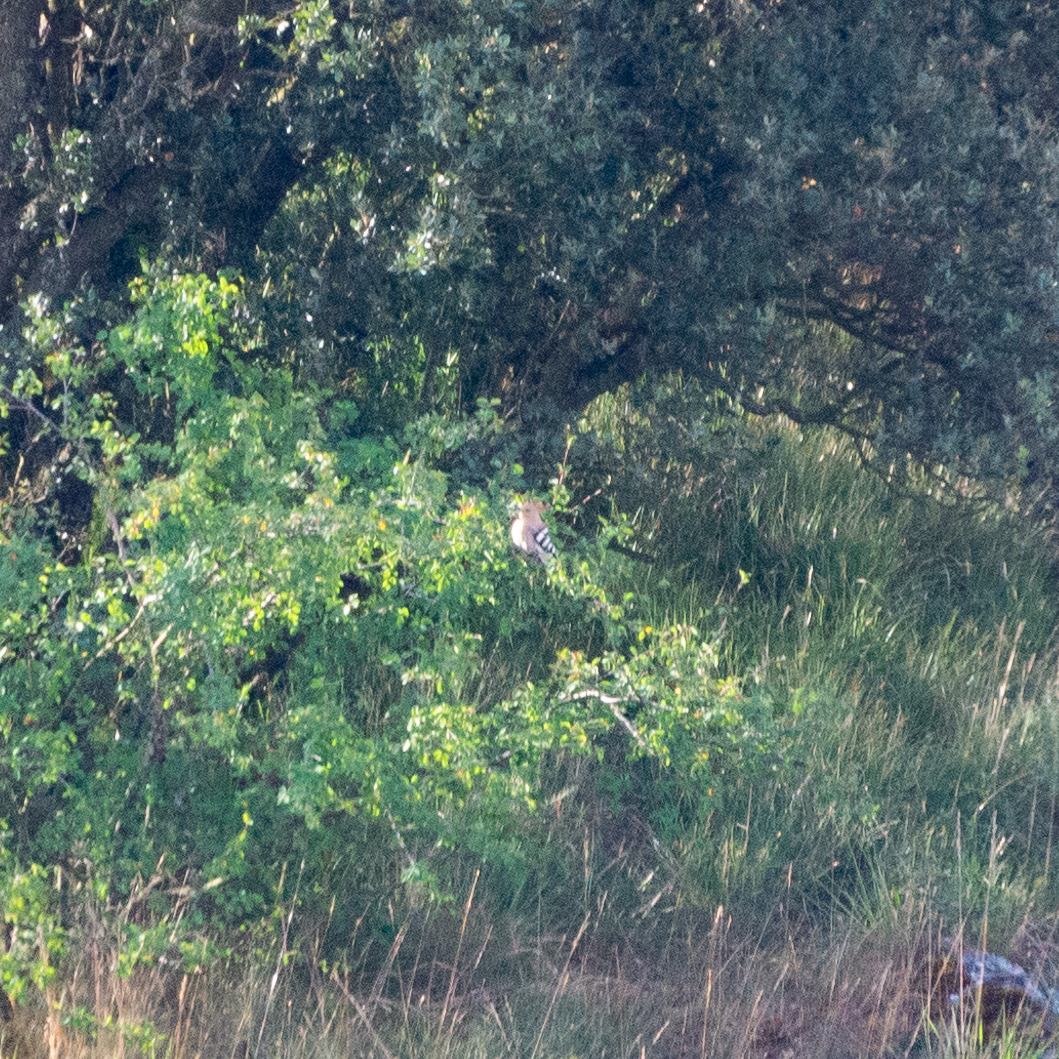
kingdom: Animalia
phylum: Chordata
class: Aves
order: Bucerotiformes
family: Upupidae
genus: Upupa
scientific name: Upupa epops
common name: Eurasian hoopoe
